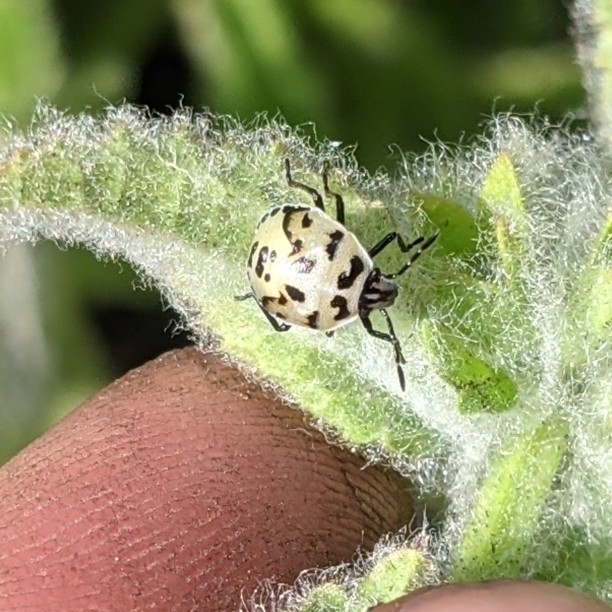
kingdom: Animalia
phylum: Arthropoda
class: Insecta
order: Hemiptera
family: Pentatomidae
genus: Cosmopepla
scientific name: Cosmopepla lintneriana
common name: Twice-stabbed stink bug
